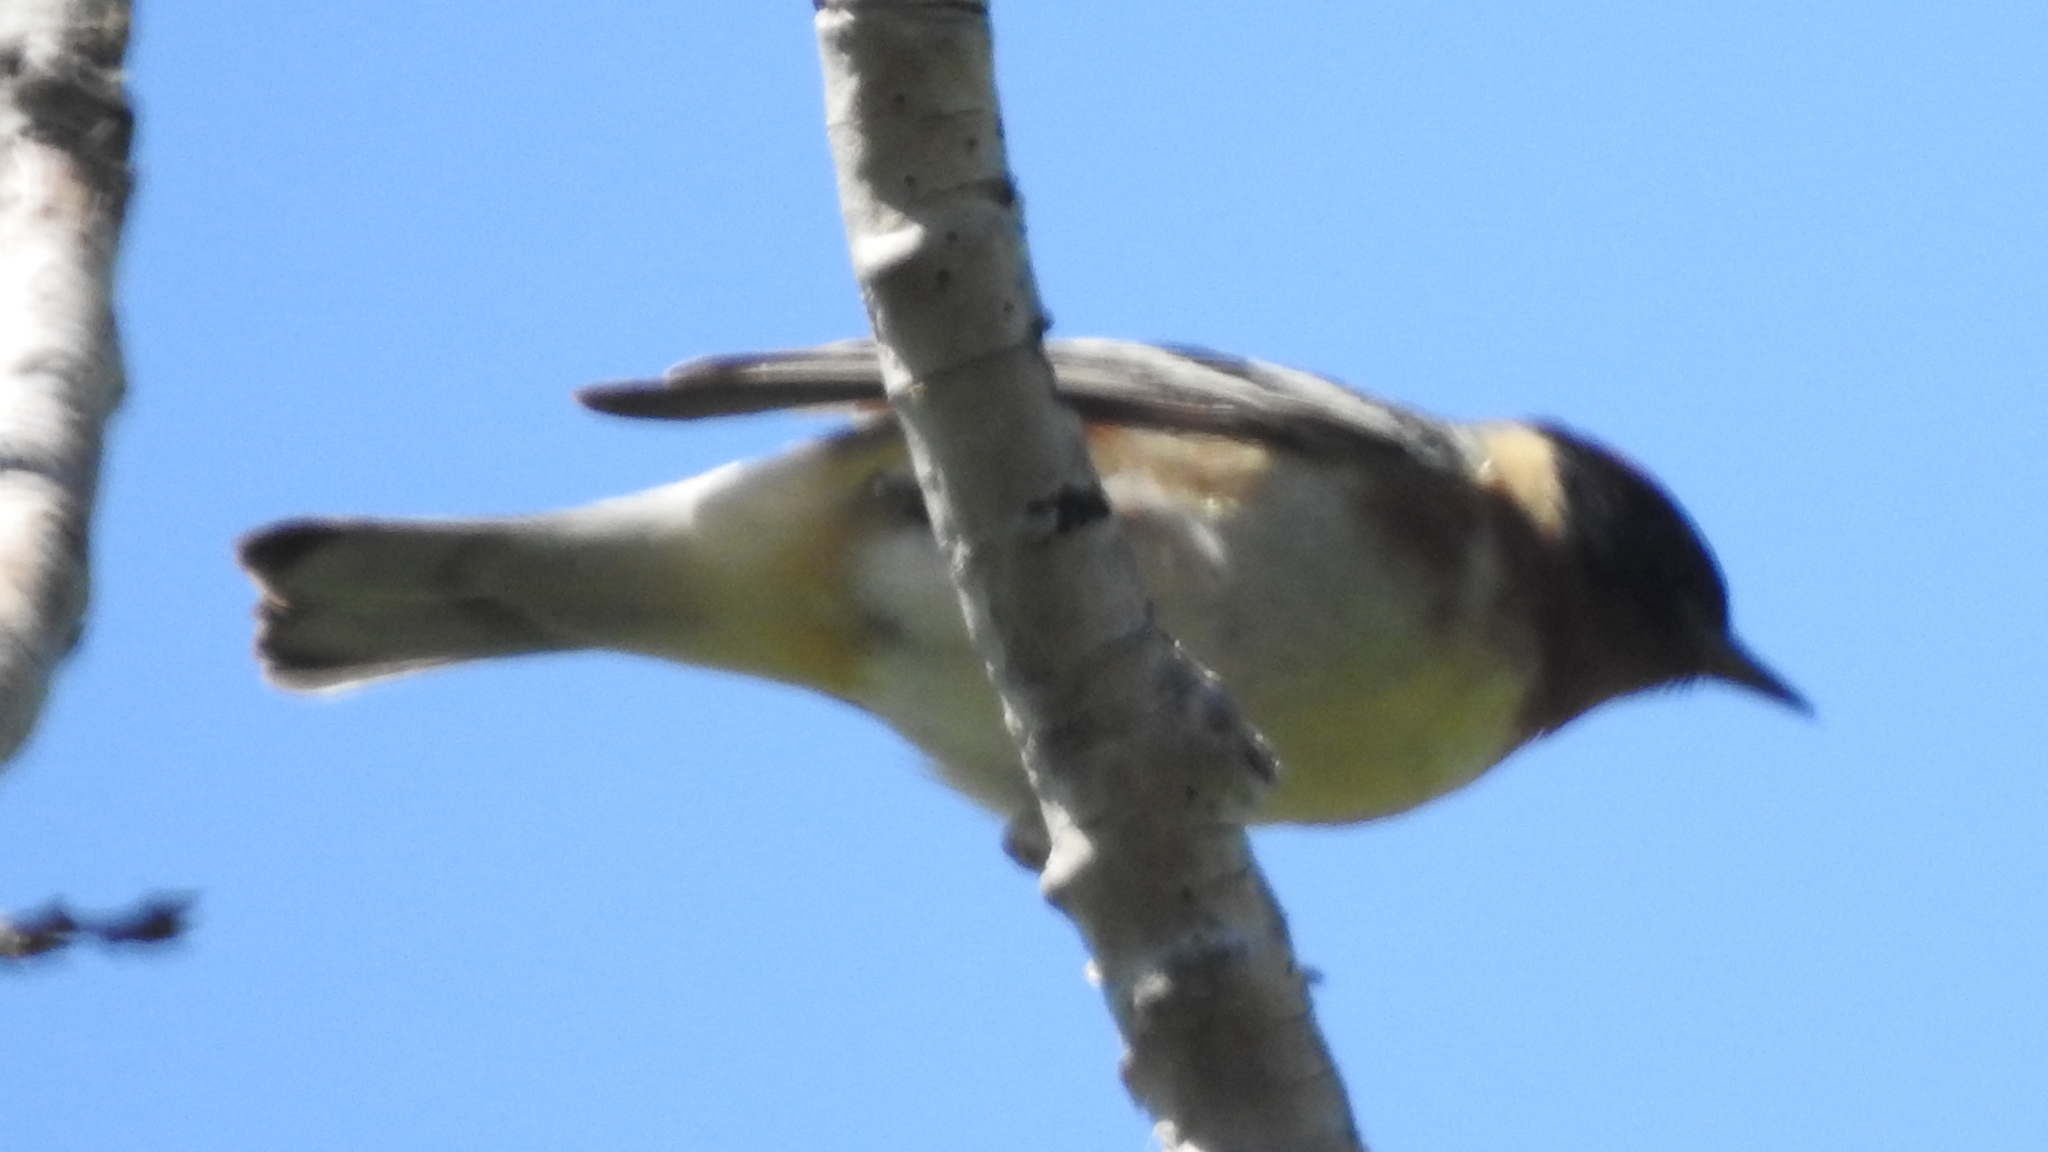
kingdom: Animalia
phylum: Chordata
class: Aves
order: Passeriformes
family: Parulidae
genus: Setophaga
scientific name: Setophaga castanea
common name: Bay-breasted warbler
